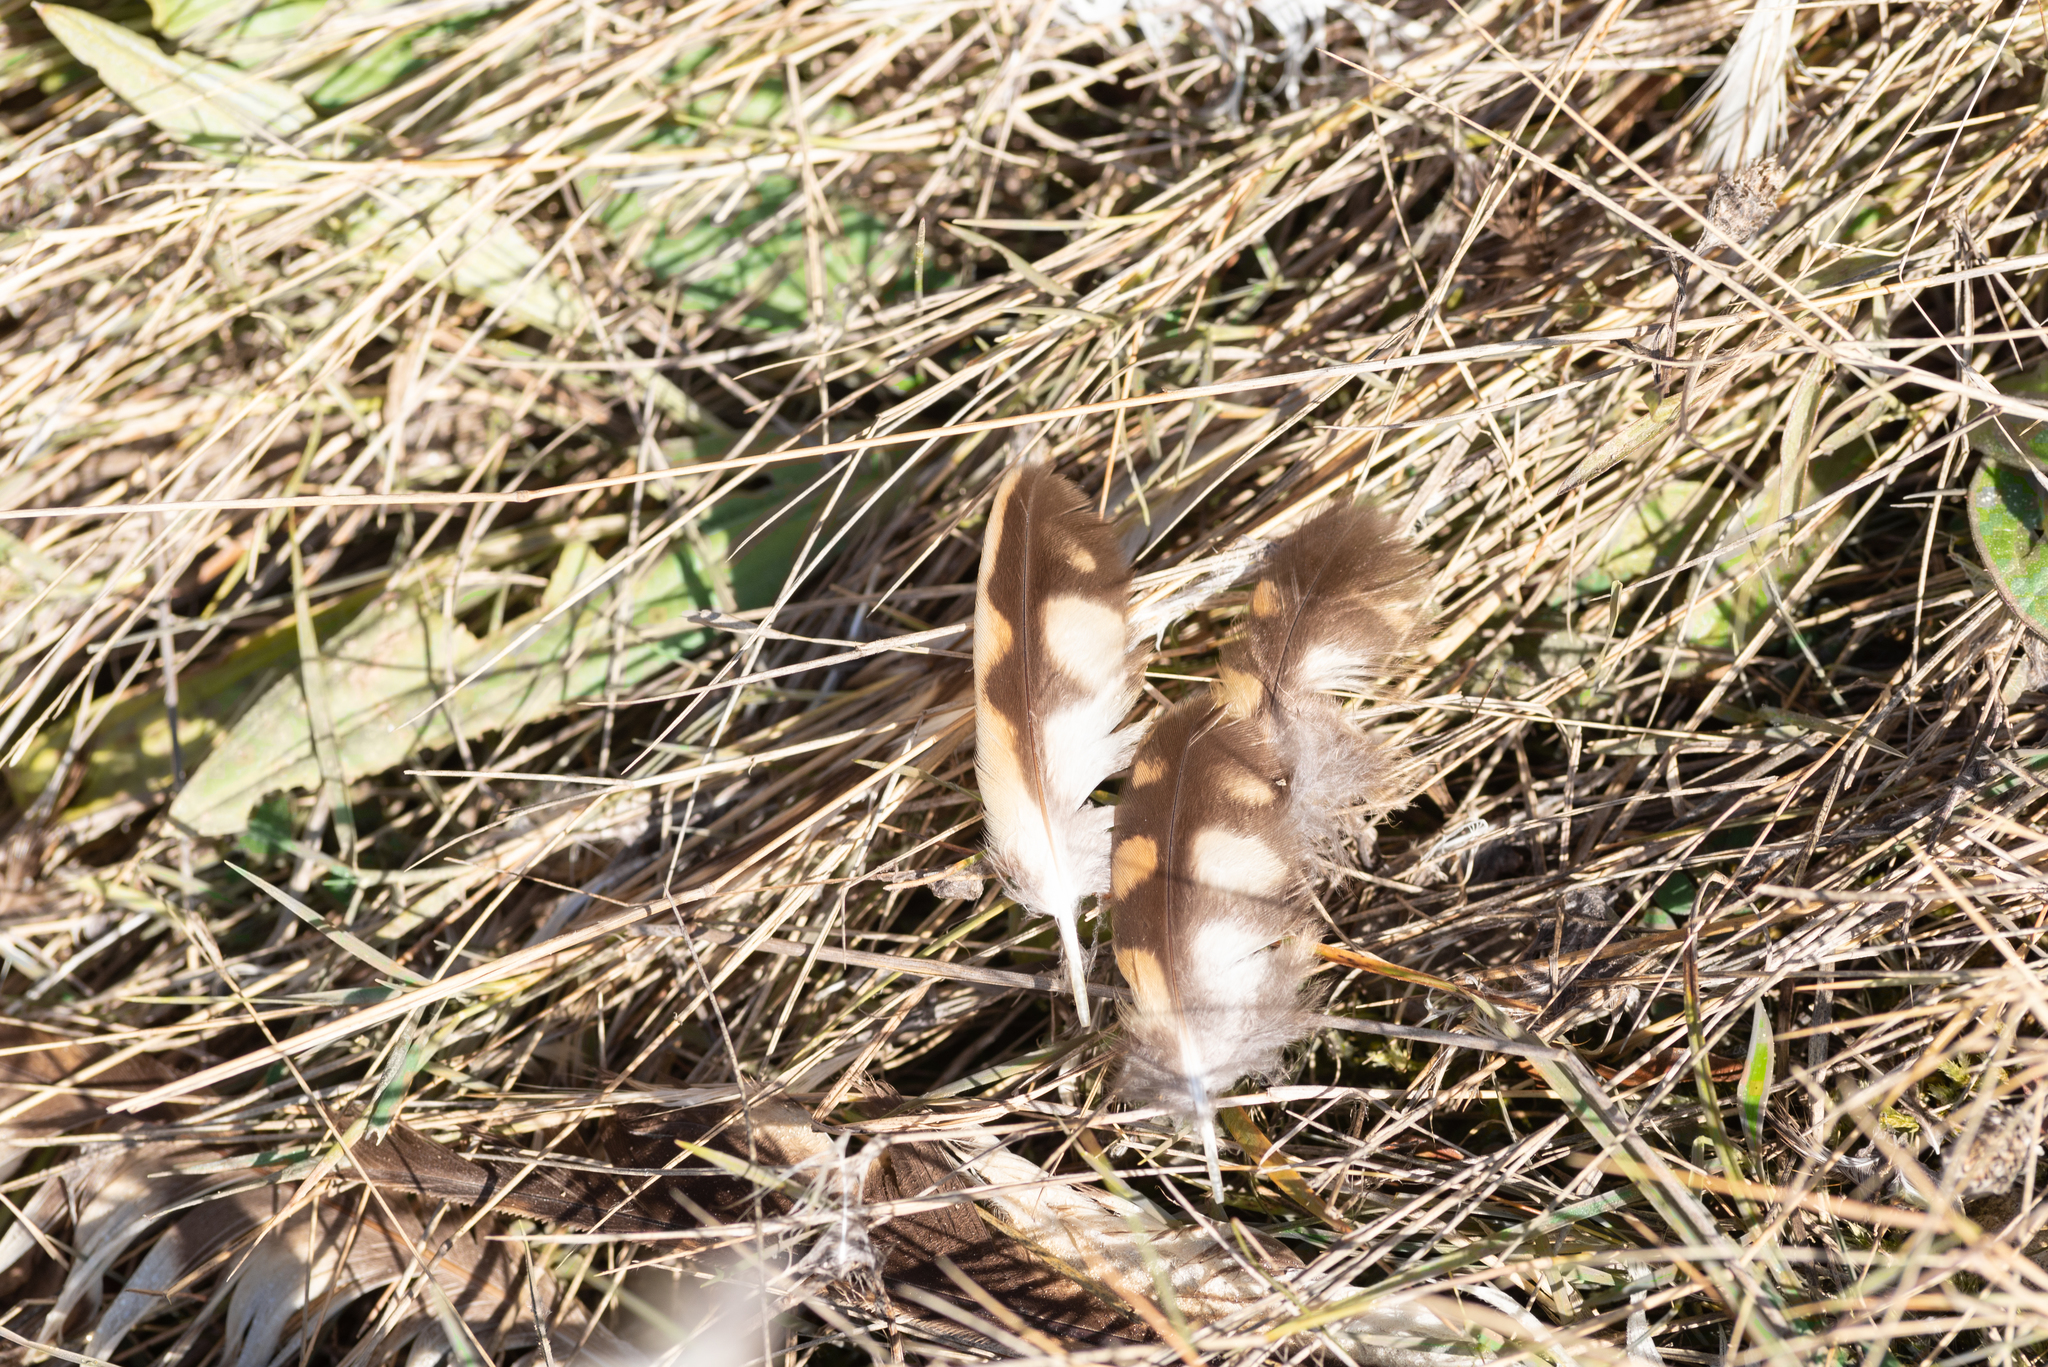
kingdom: Animalia
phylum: Chordata
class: Aves
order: Strigiformes
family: Strigidae
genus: Asio
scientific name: Asio flammeus
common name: Short-eared owl
